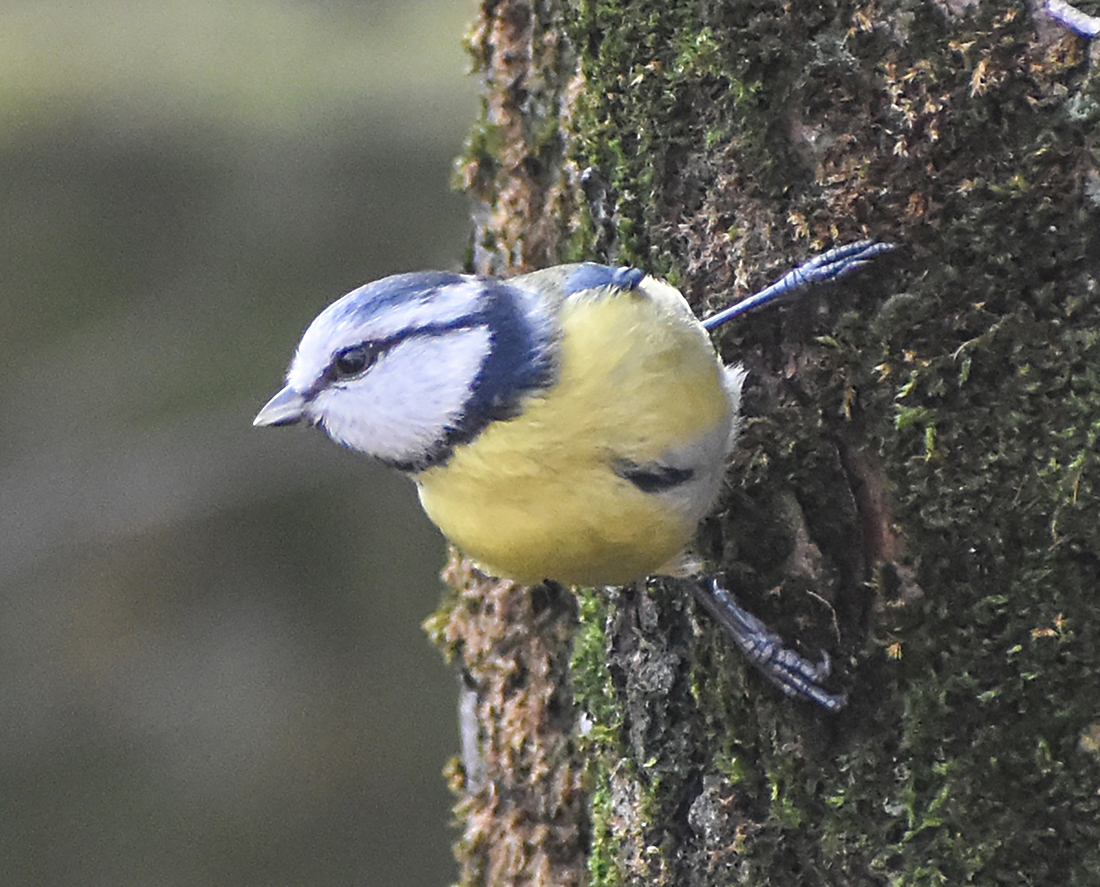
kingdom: Animalia
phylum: Chordata
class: Aves
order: Passeriformes
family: Paridae
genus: Cyanistes
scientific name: Cyanistes caeruleus
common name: Eurasian blue tit
